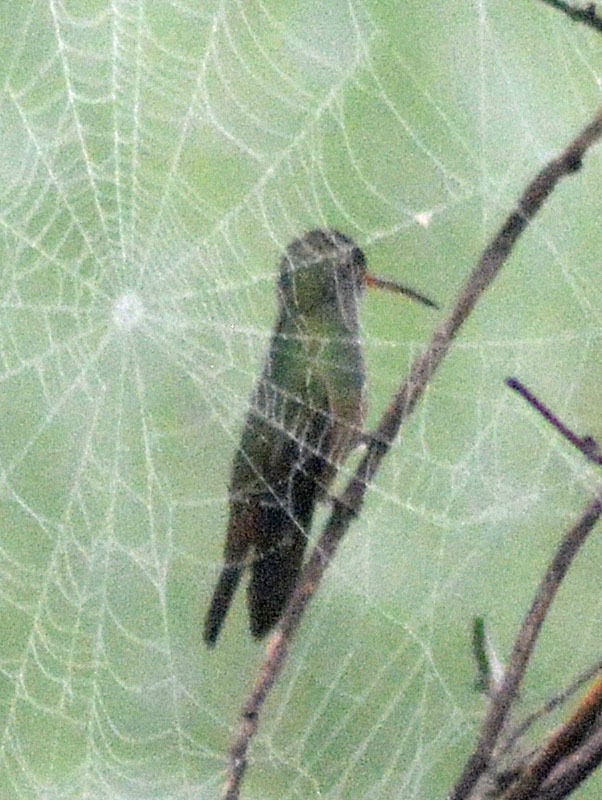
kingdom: Animalia
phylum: Chordata
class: Aves
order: Apodiformes
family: Trochilidae
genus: Amazilia
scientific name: Amazilia yucatanensis
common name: Buff-bellied hummingbird
